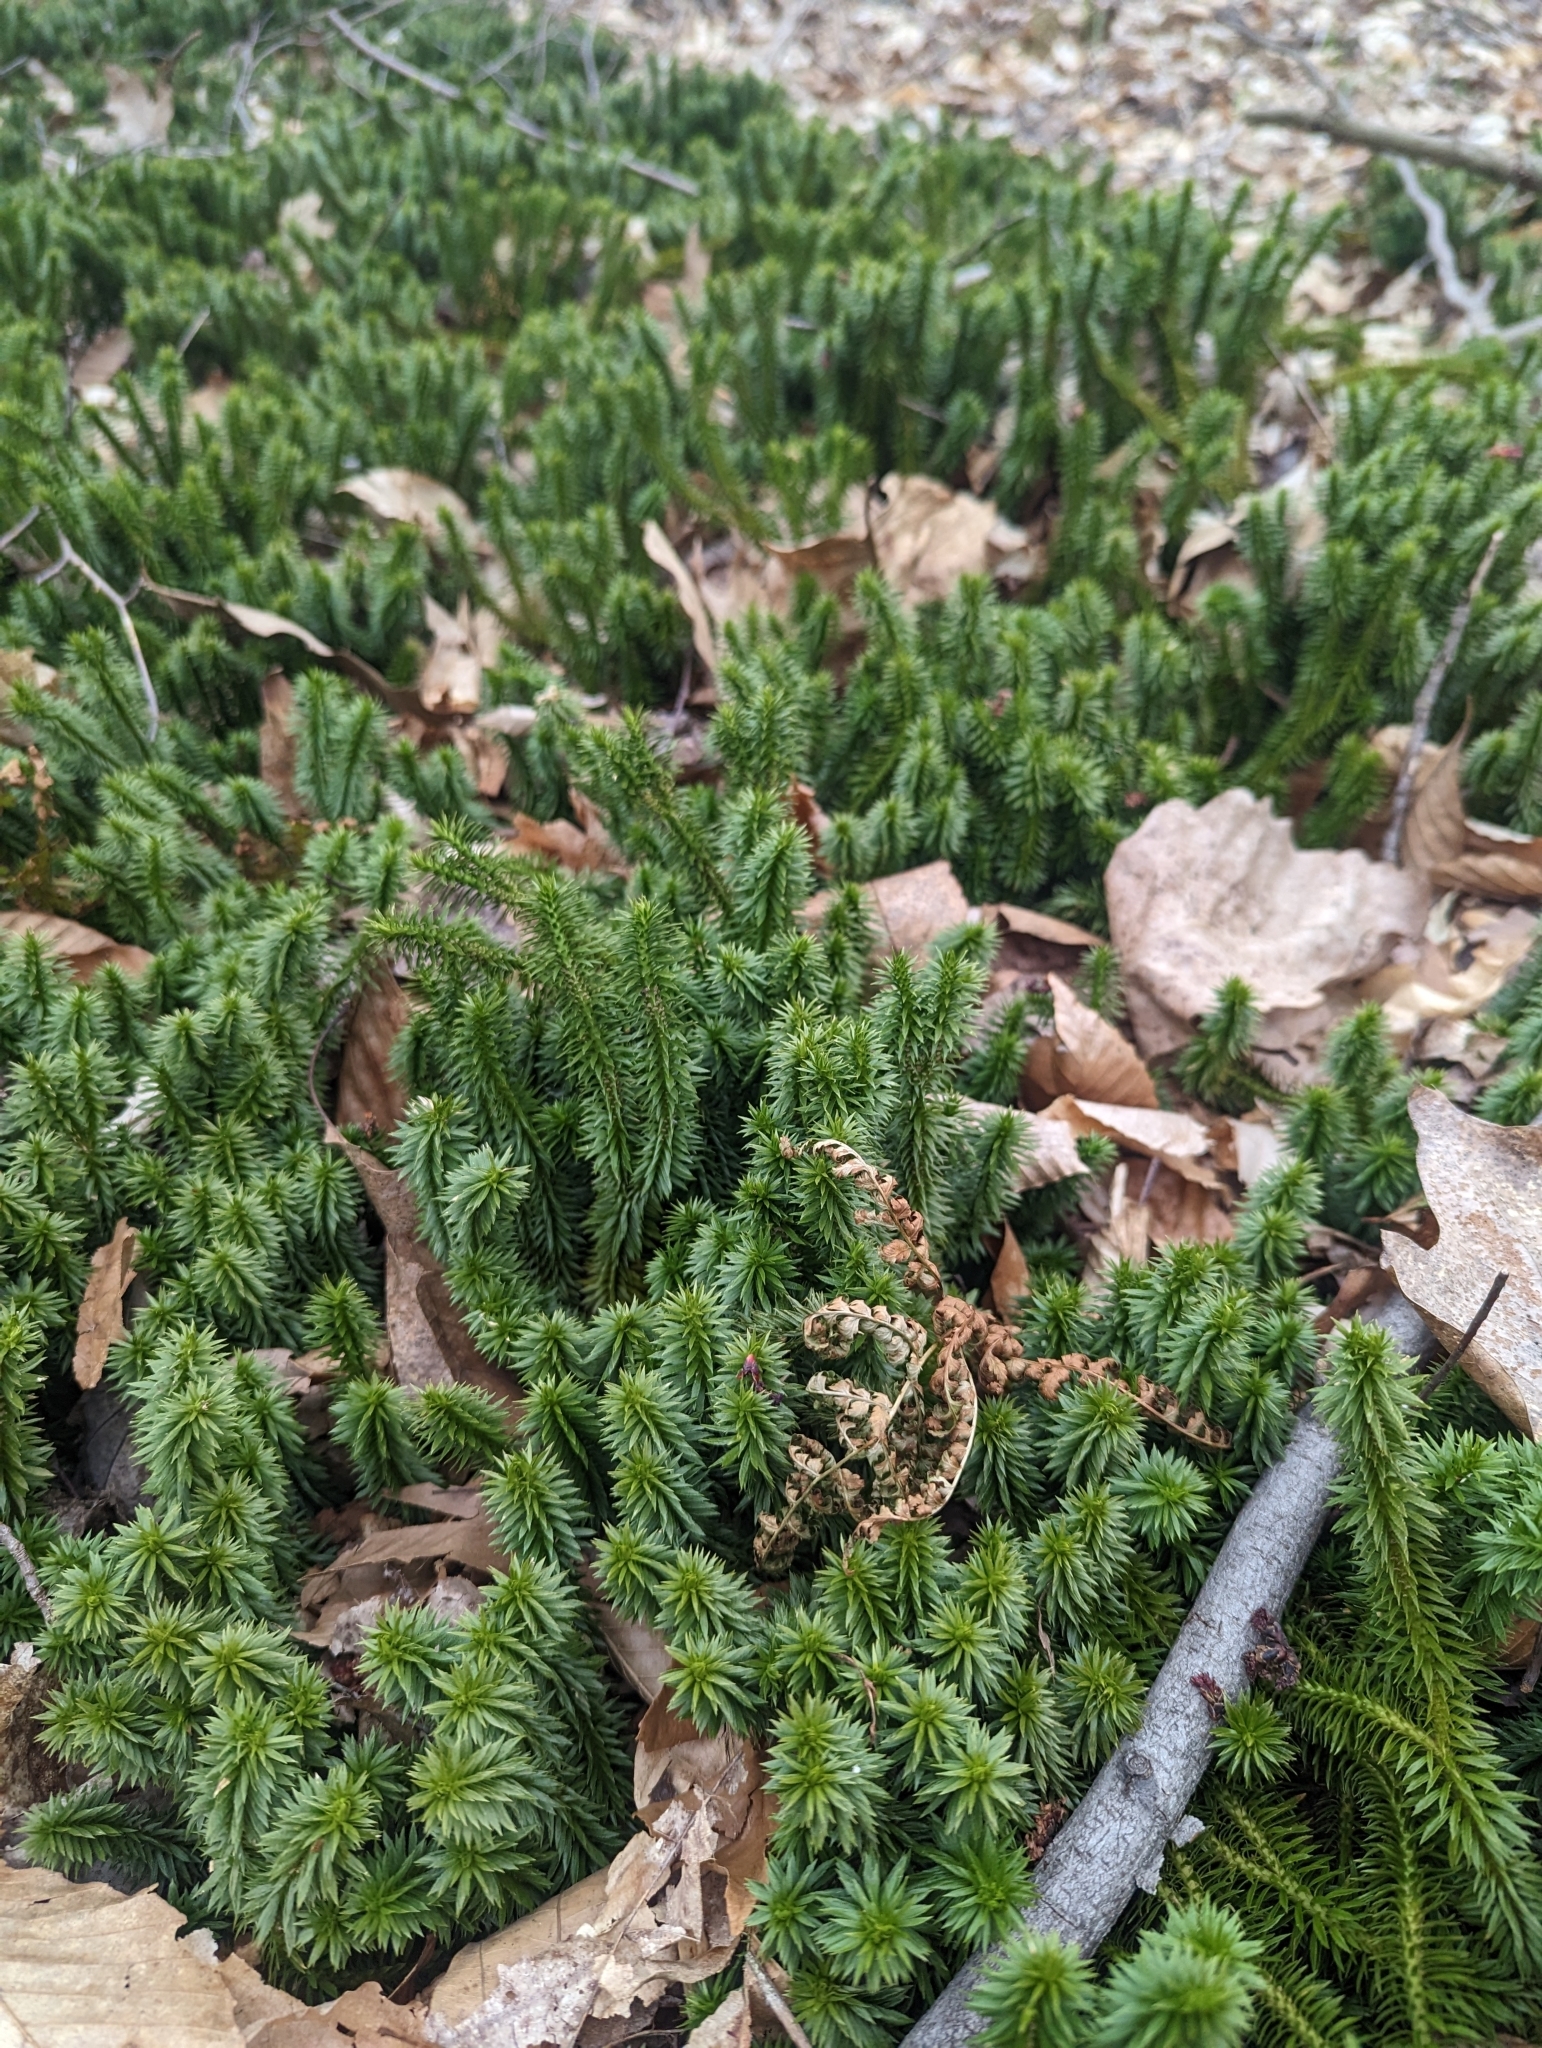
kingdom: Plantae
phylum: Tracheophyta
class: Lycopodiopsida
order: Lycopodiales
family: Lycopodiaceae
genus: Huperzia
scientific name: Huperzia lucidula
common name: Shining clubmoss
